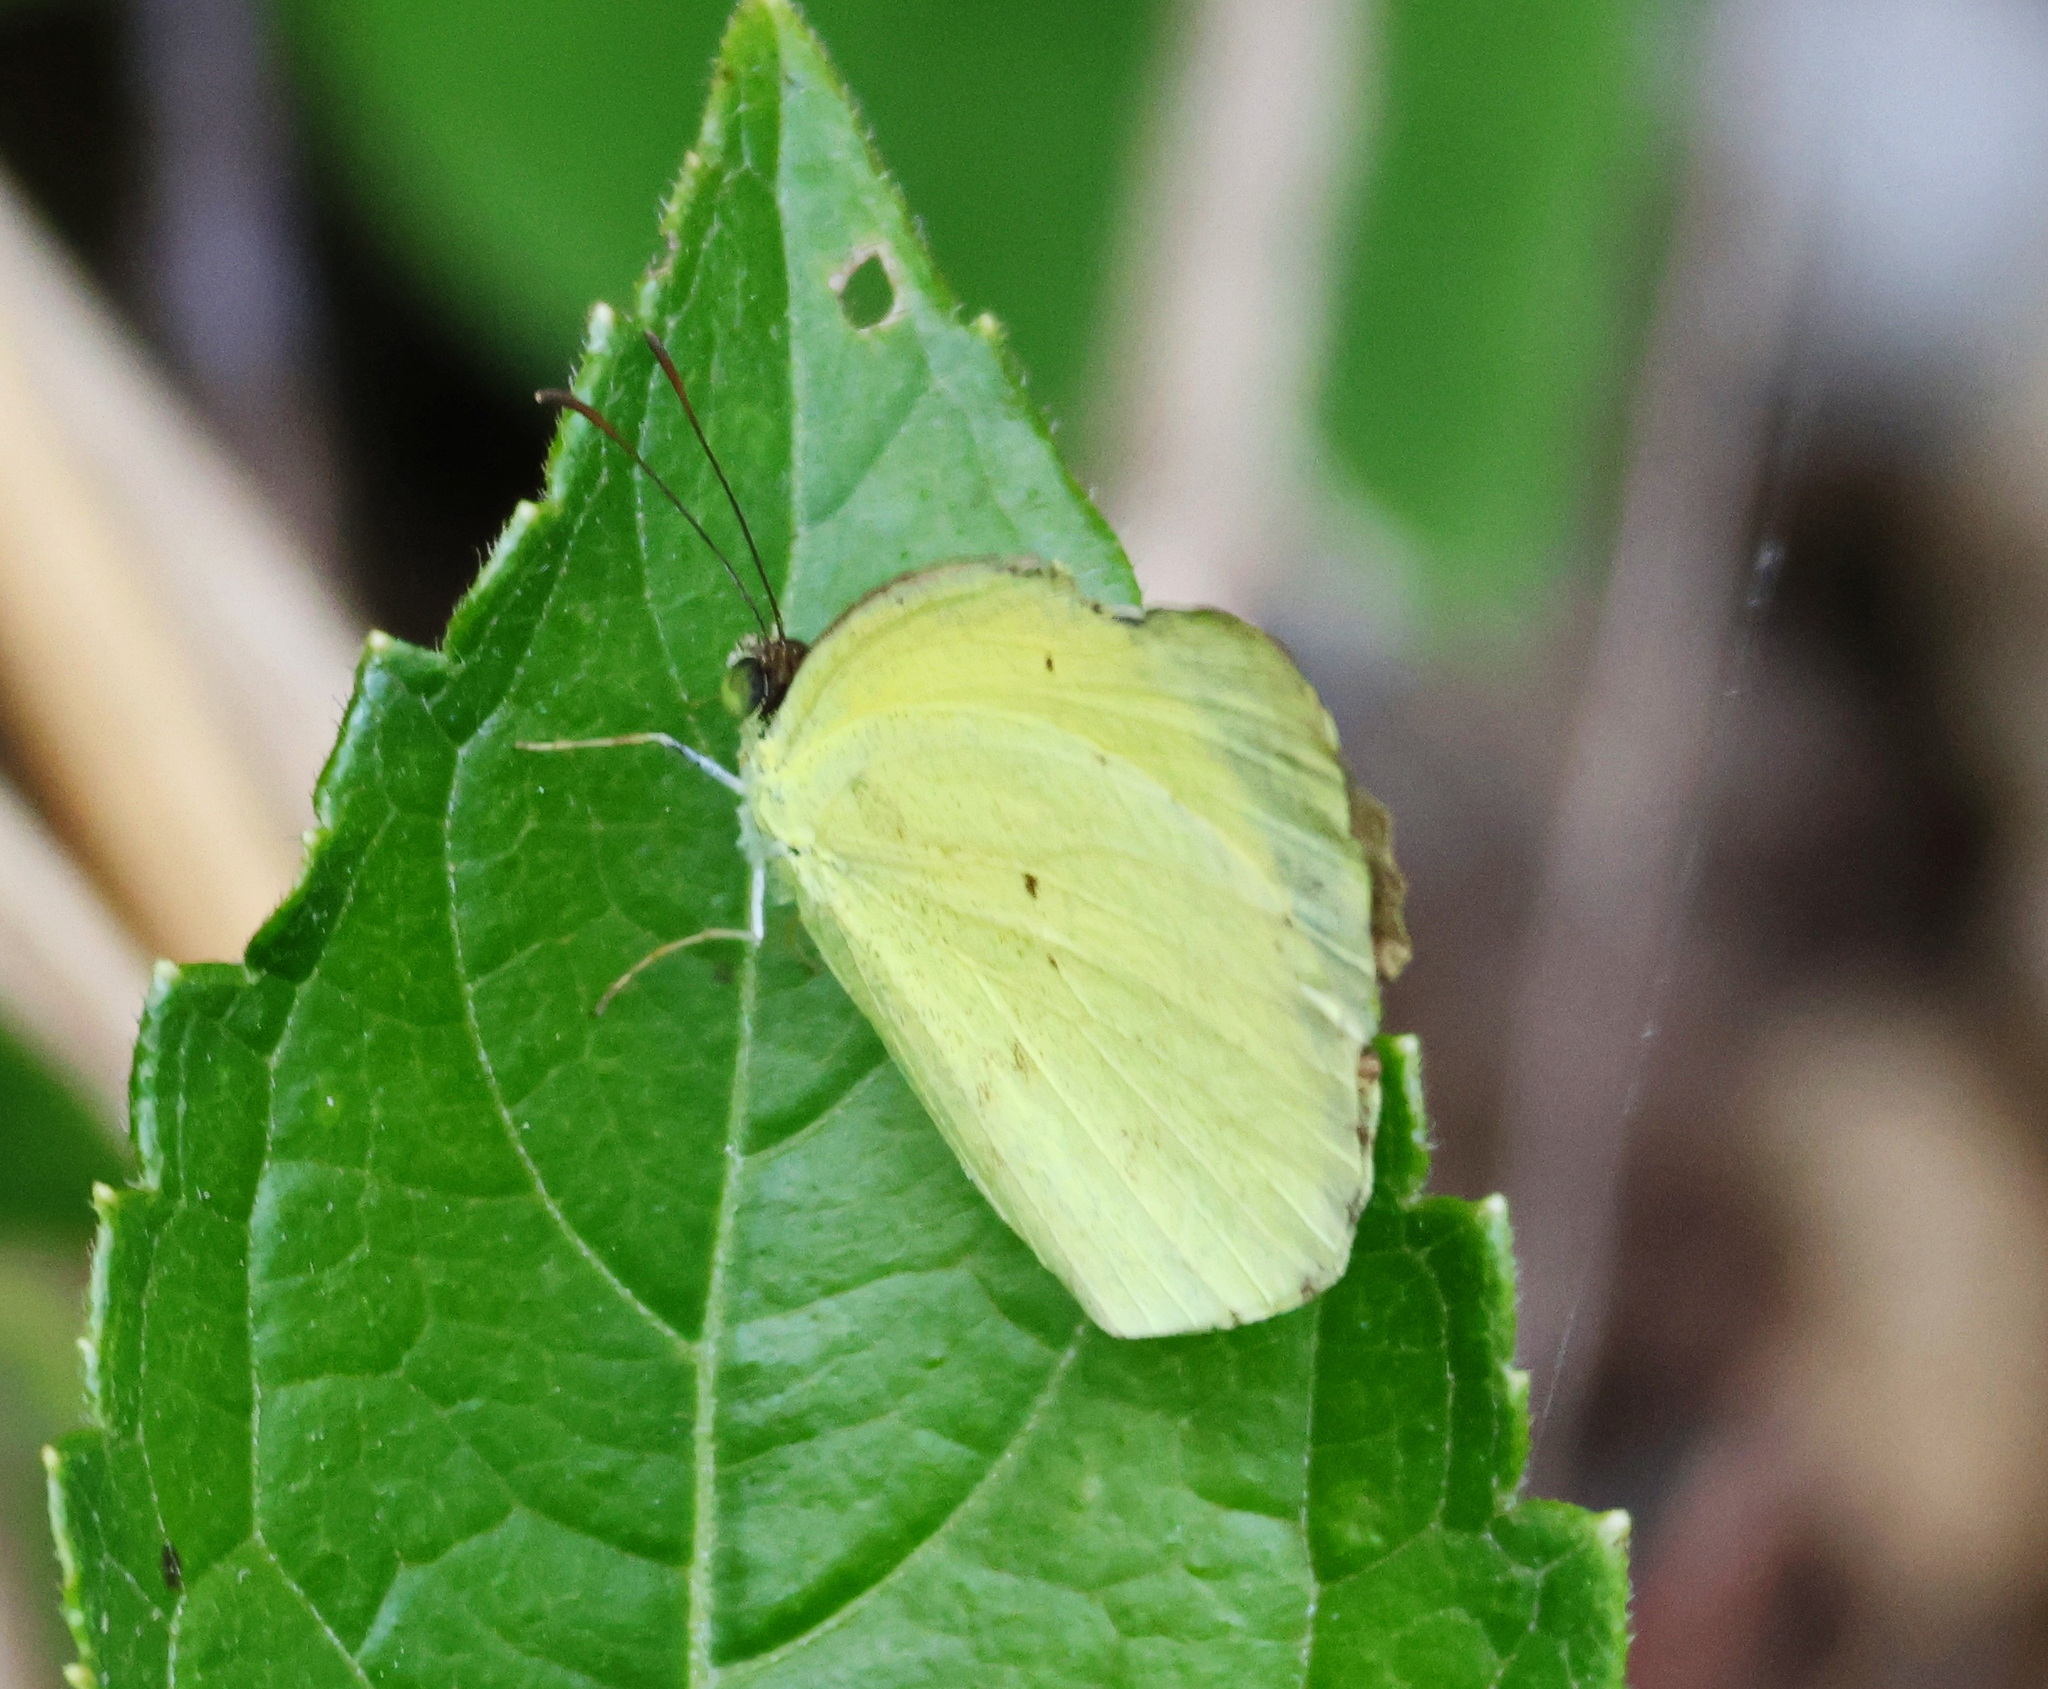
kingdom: Animalia
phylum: Arthropoda
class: Insecta
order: Lepidoptera
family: Pieridae
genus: Pyrisitia
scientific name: Pyrisitia nise
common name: Mimosa yellow
